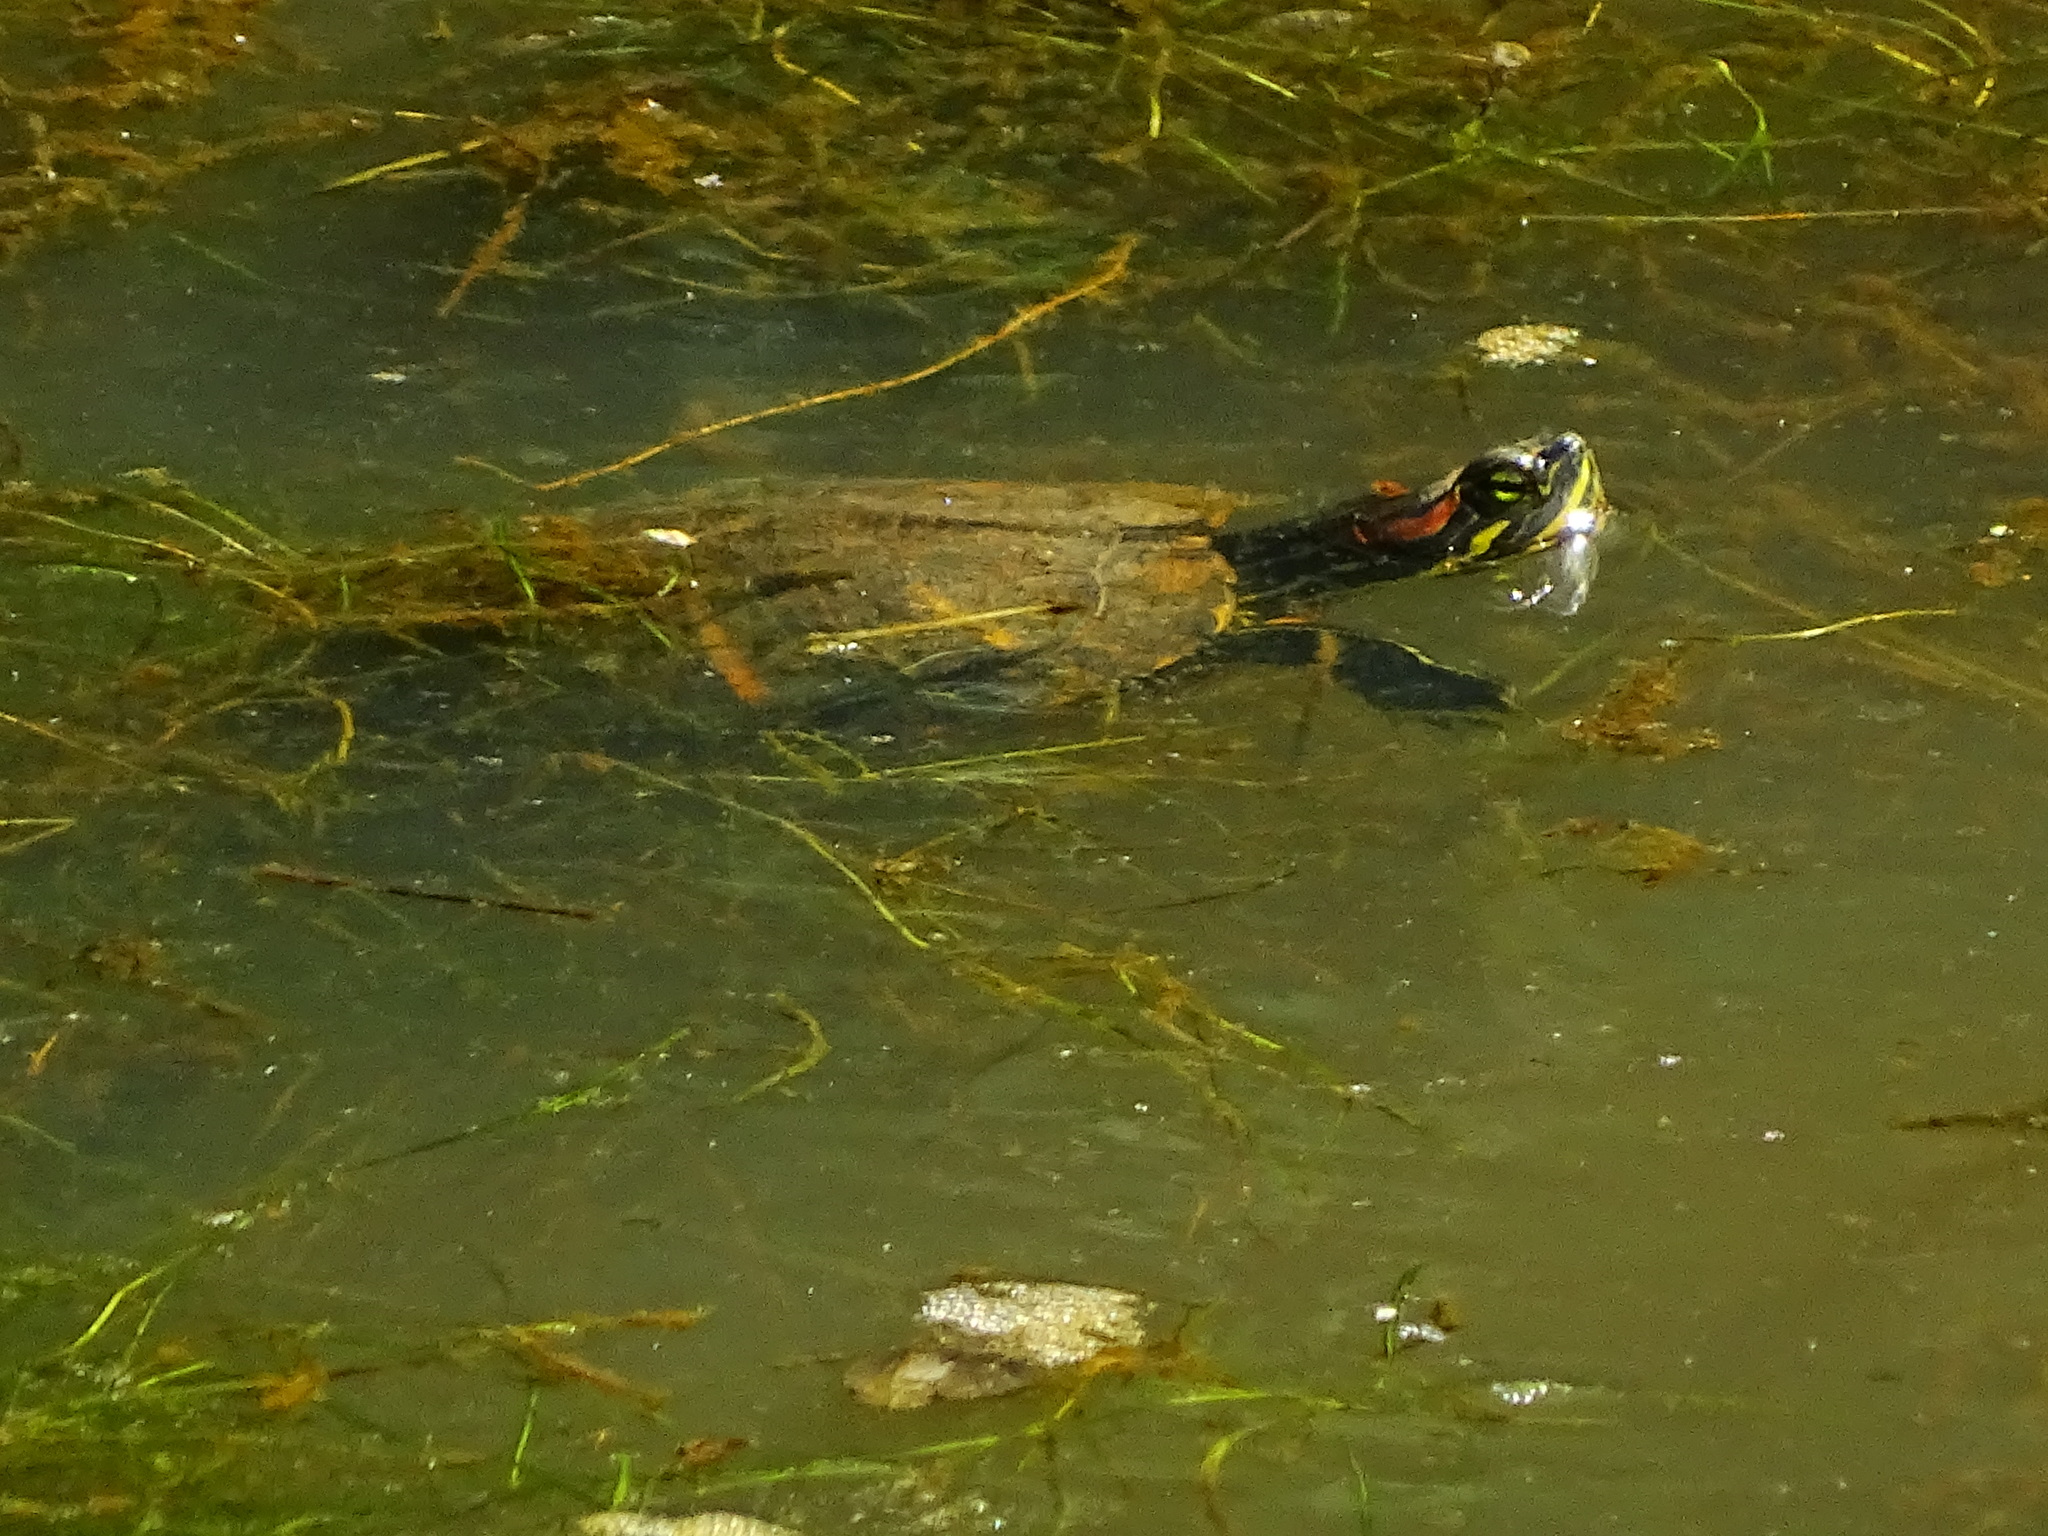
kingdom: Animalia
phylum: Chordata
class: Testudines
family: Emydidae
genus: Trachemys
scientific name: Trachemys scripta
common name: Slider
